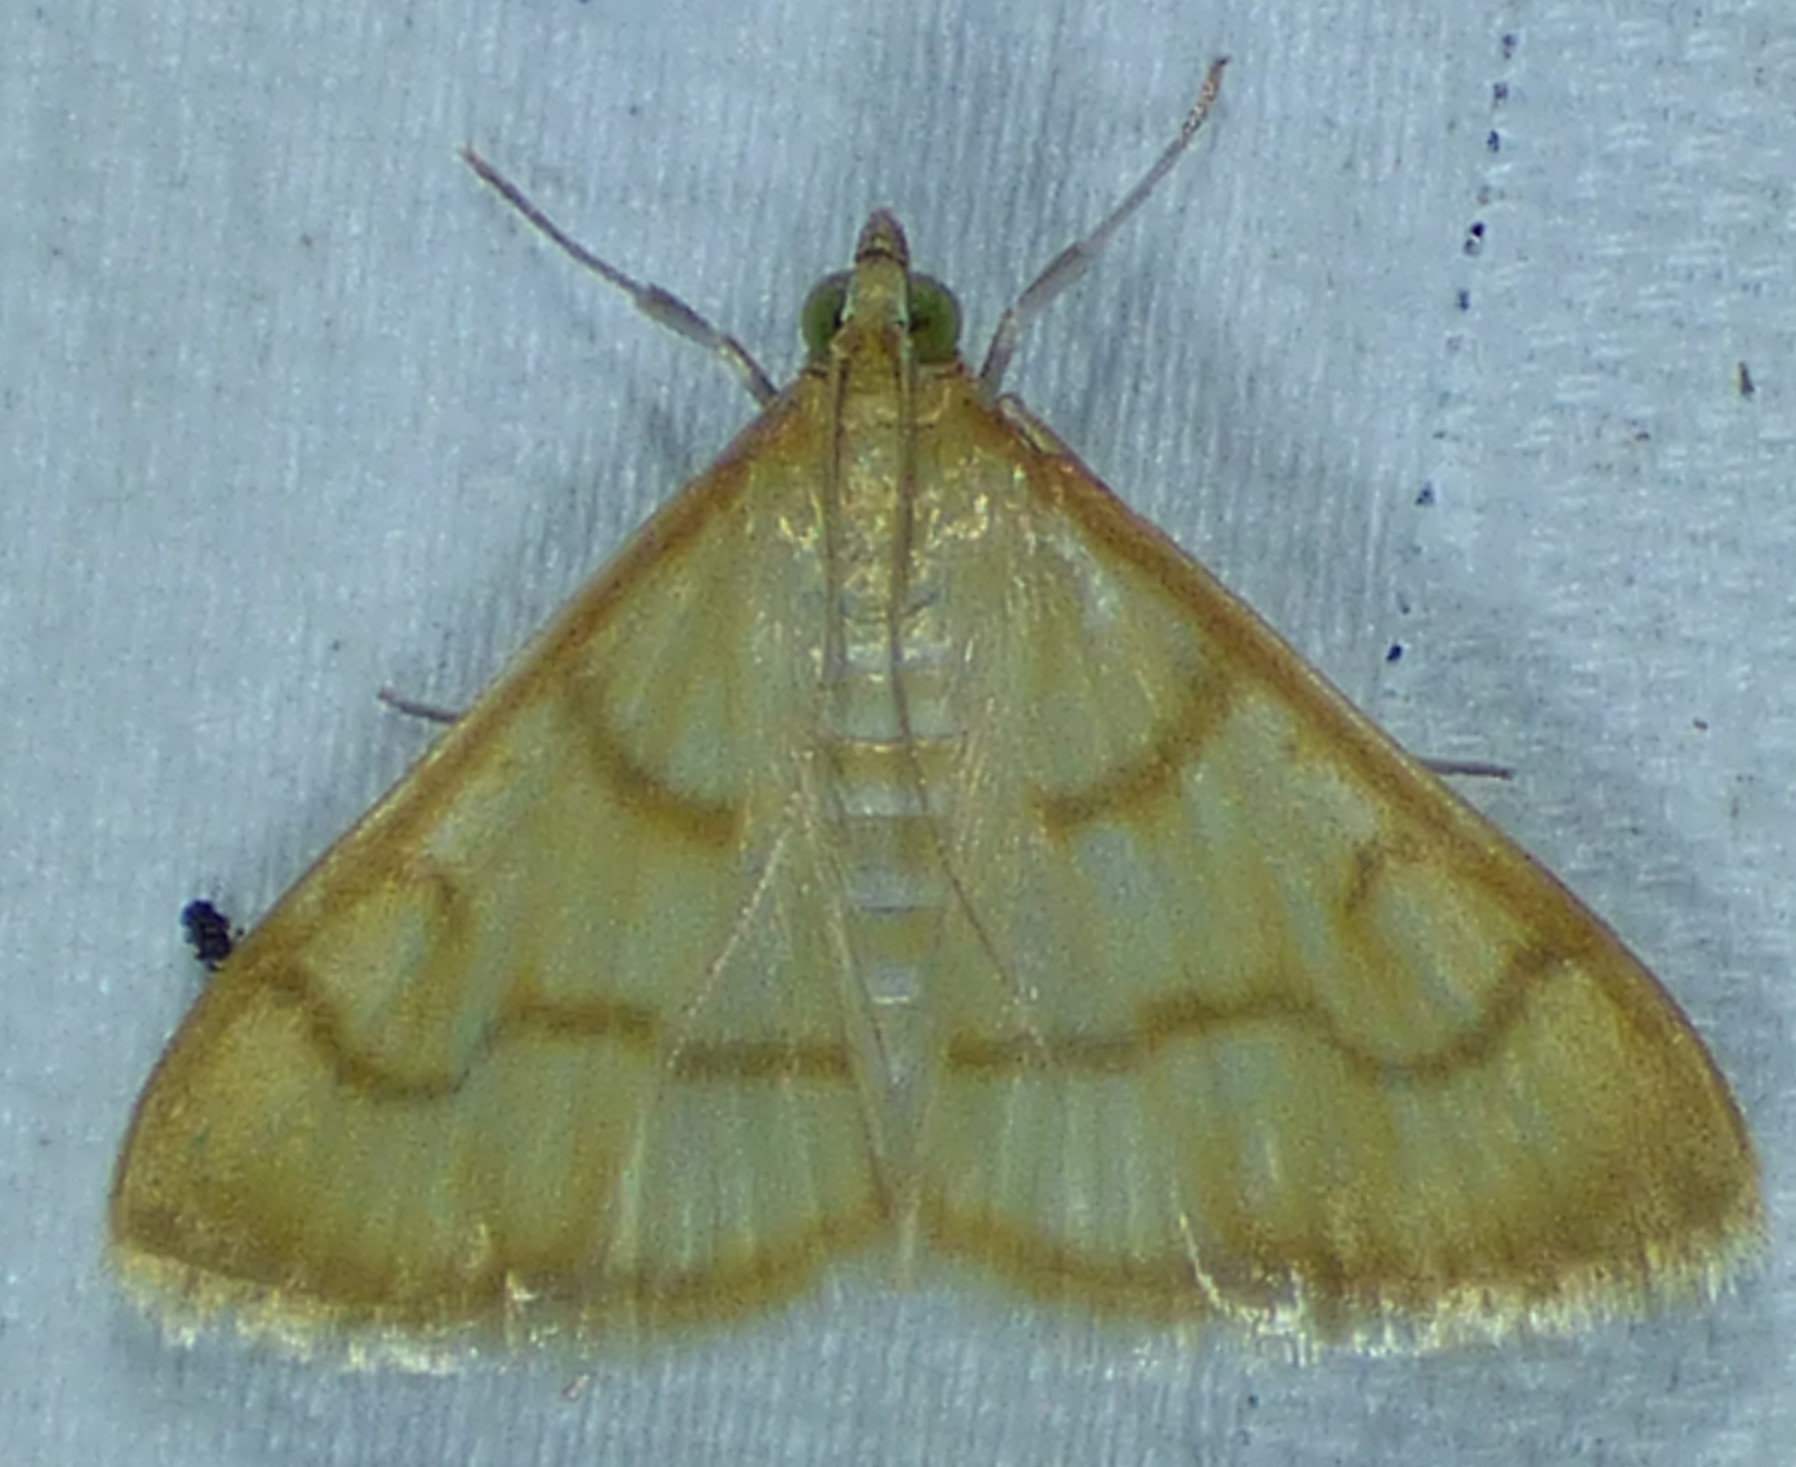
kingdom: Animalia
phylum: Arthropoda
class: Insecta
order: Lepidoptera
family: Crambidae
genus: Neohelvibotys
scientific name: Neohelvibotys neohelvialis
